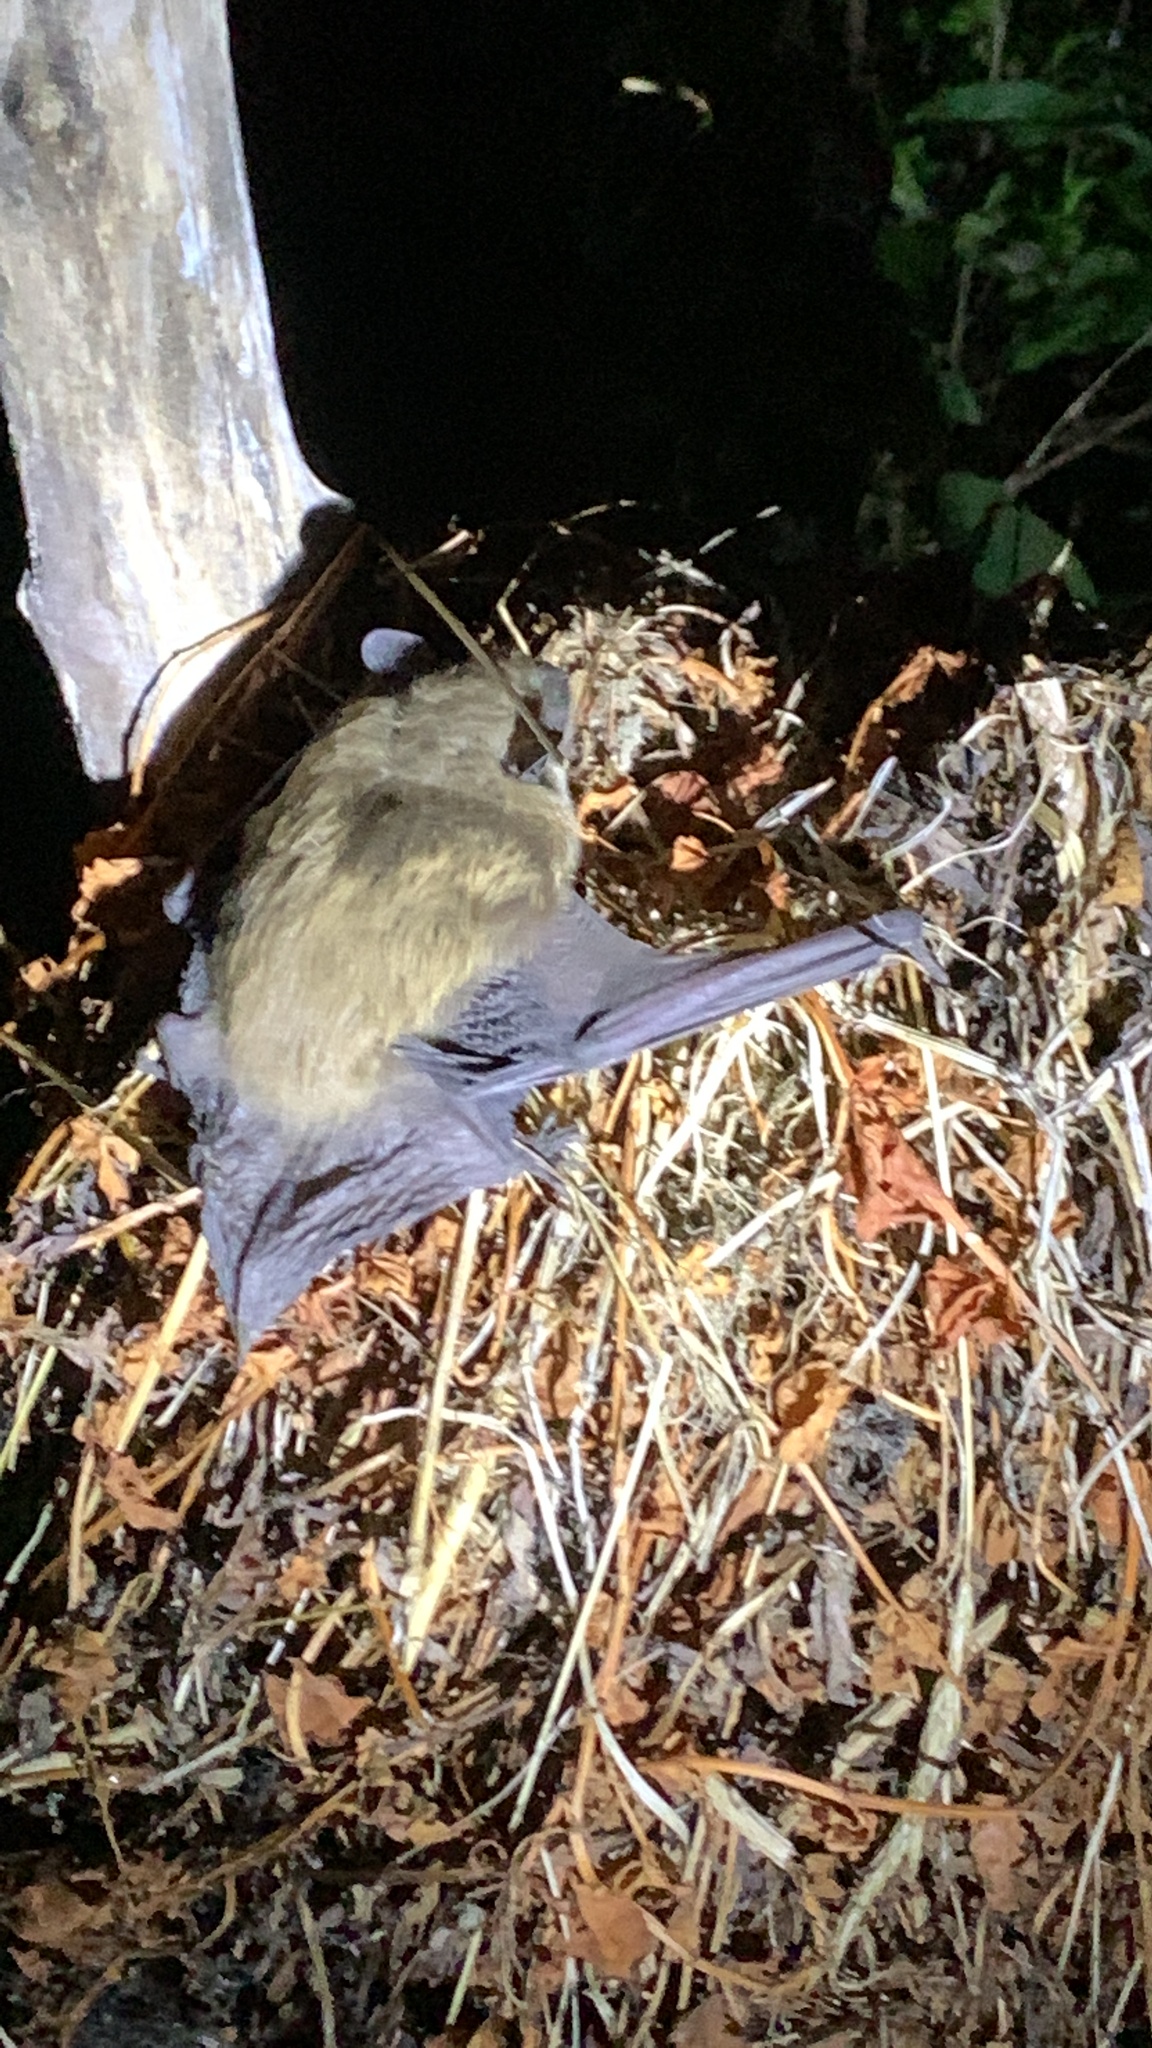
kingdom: Animalia
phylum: Chordata
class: Mammalia
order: Chiroptera
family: Vespertilionidae
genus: Eptesicus
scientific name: Eptesicus fuscus
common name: Big brown bat
